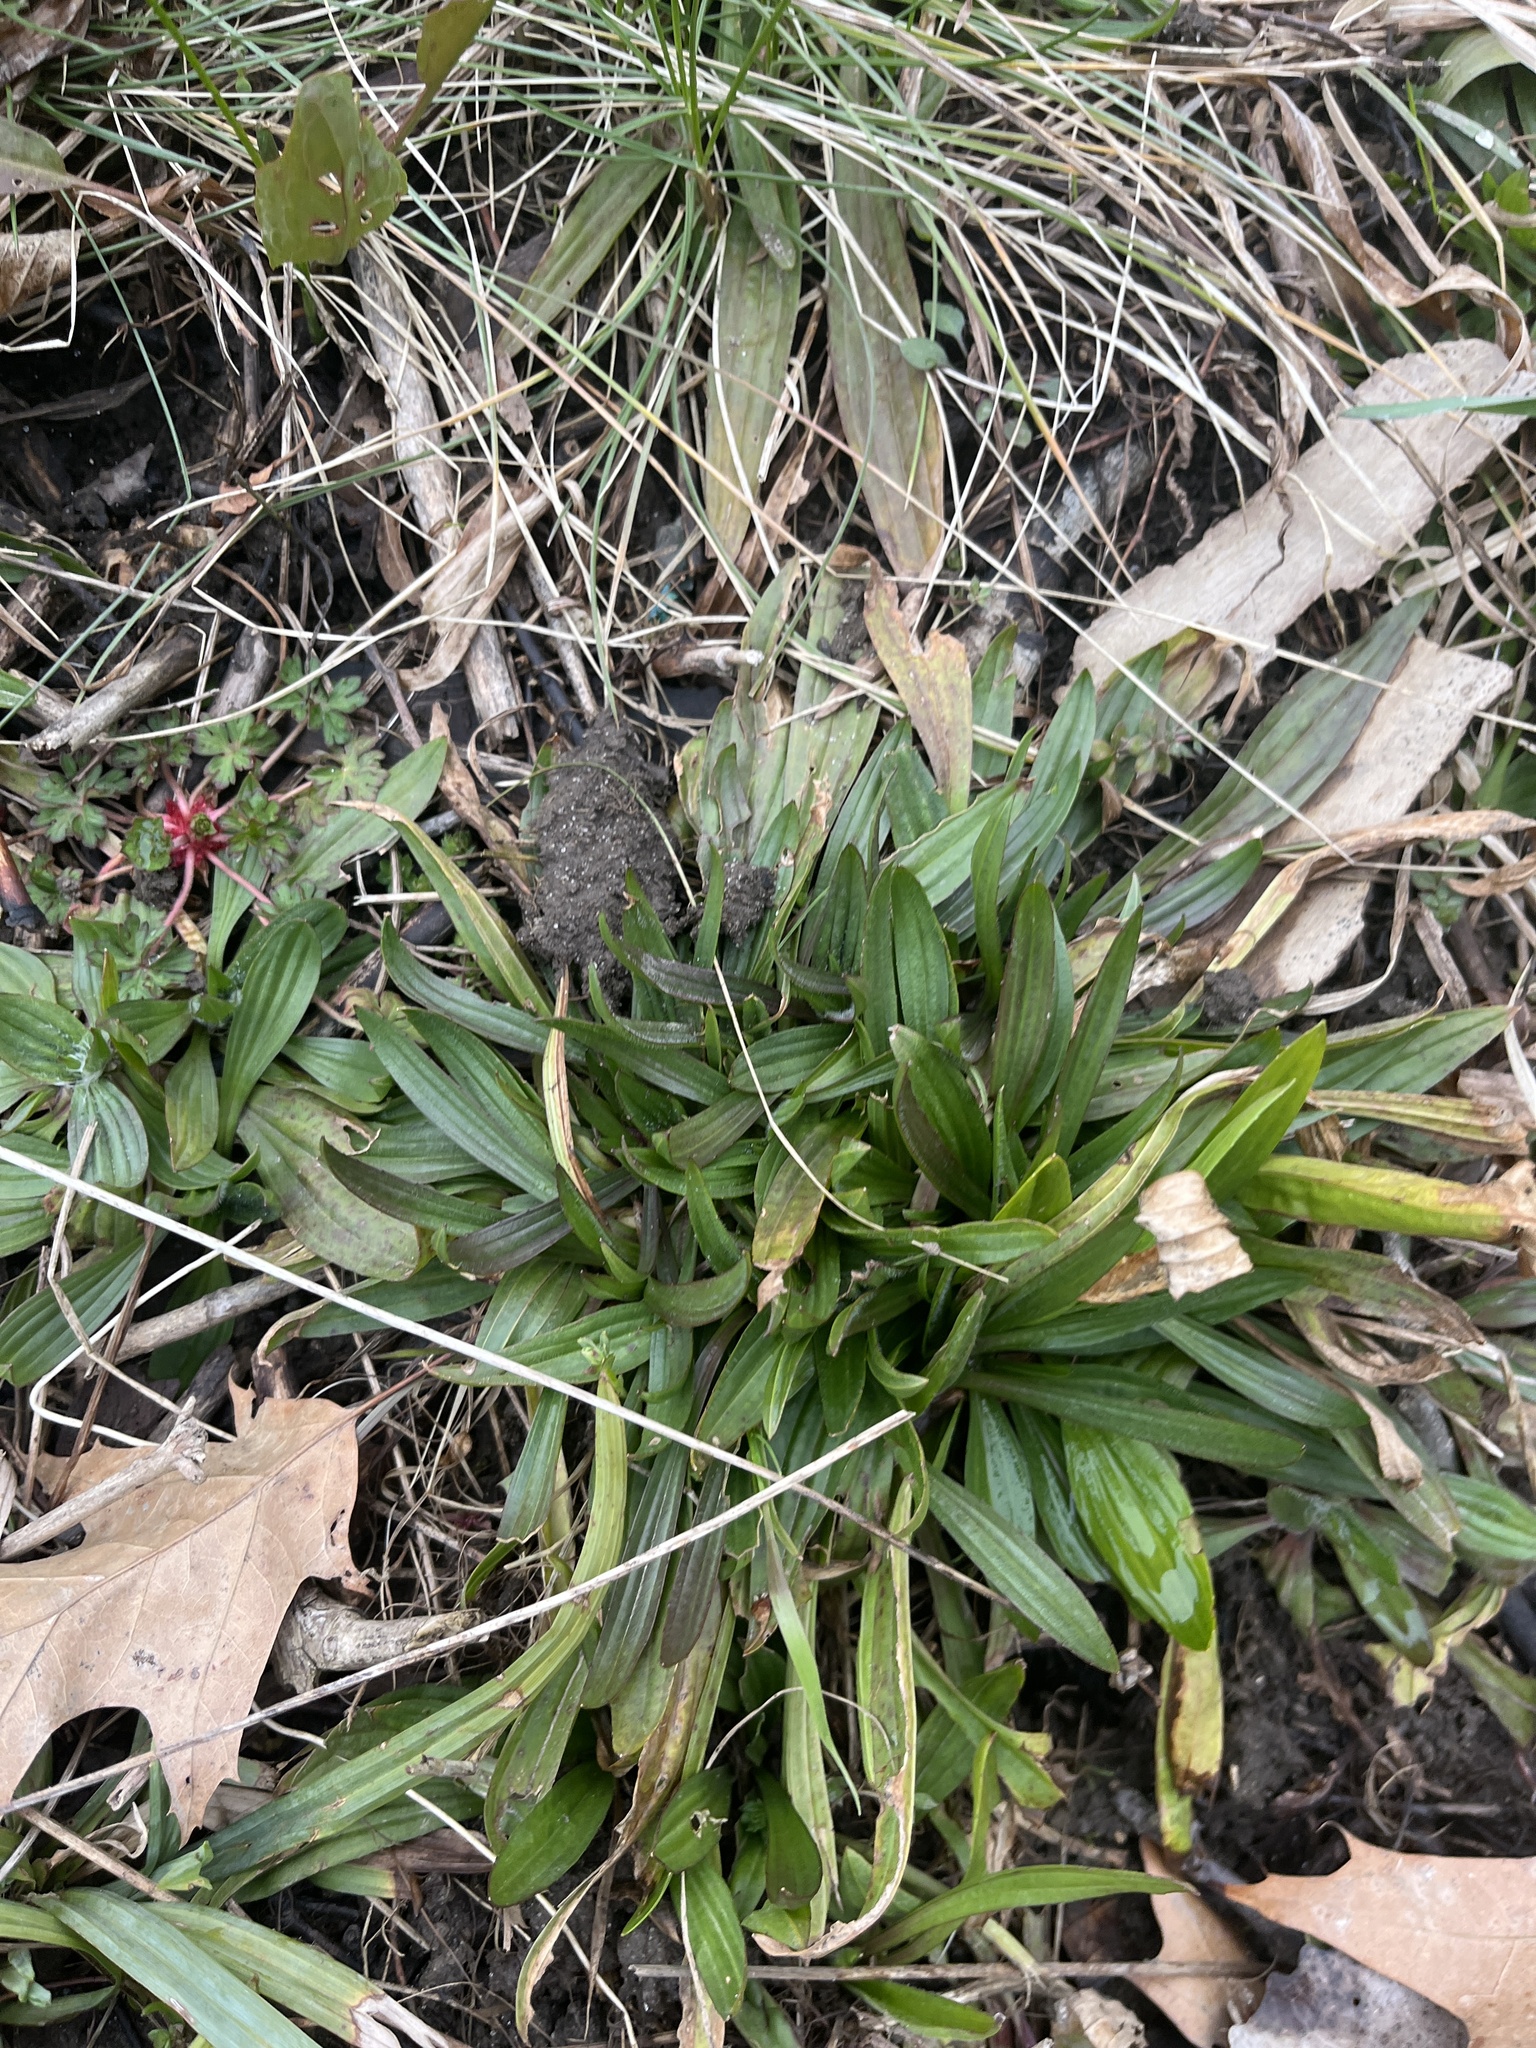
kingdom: Plantae
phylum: Tracheophyta
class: Magnoliopsida
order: Lamiales
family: Plantaginaceae
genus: Plantago
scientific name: Plantago lanceolata
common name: Ribwort plantain
